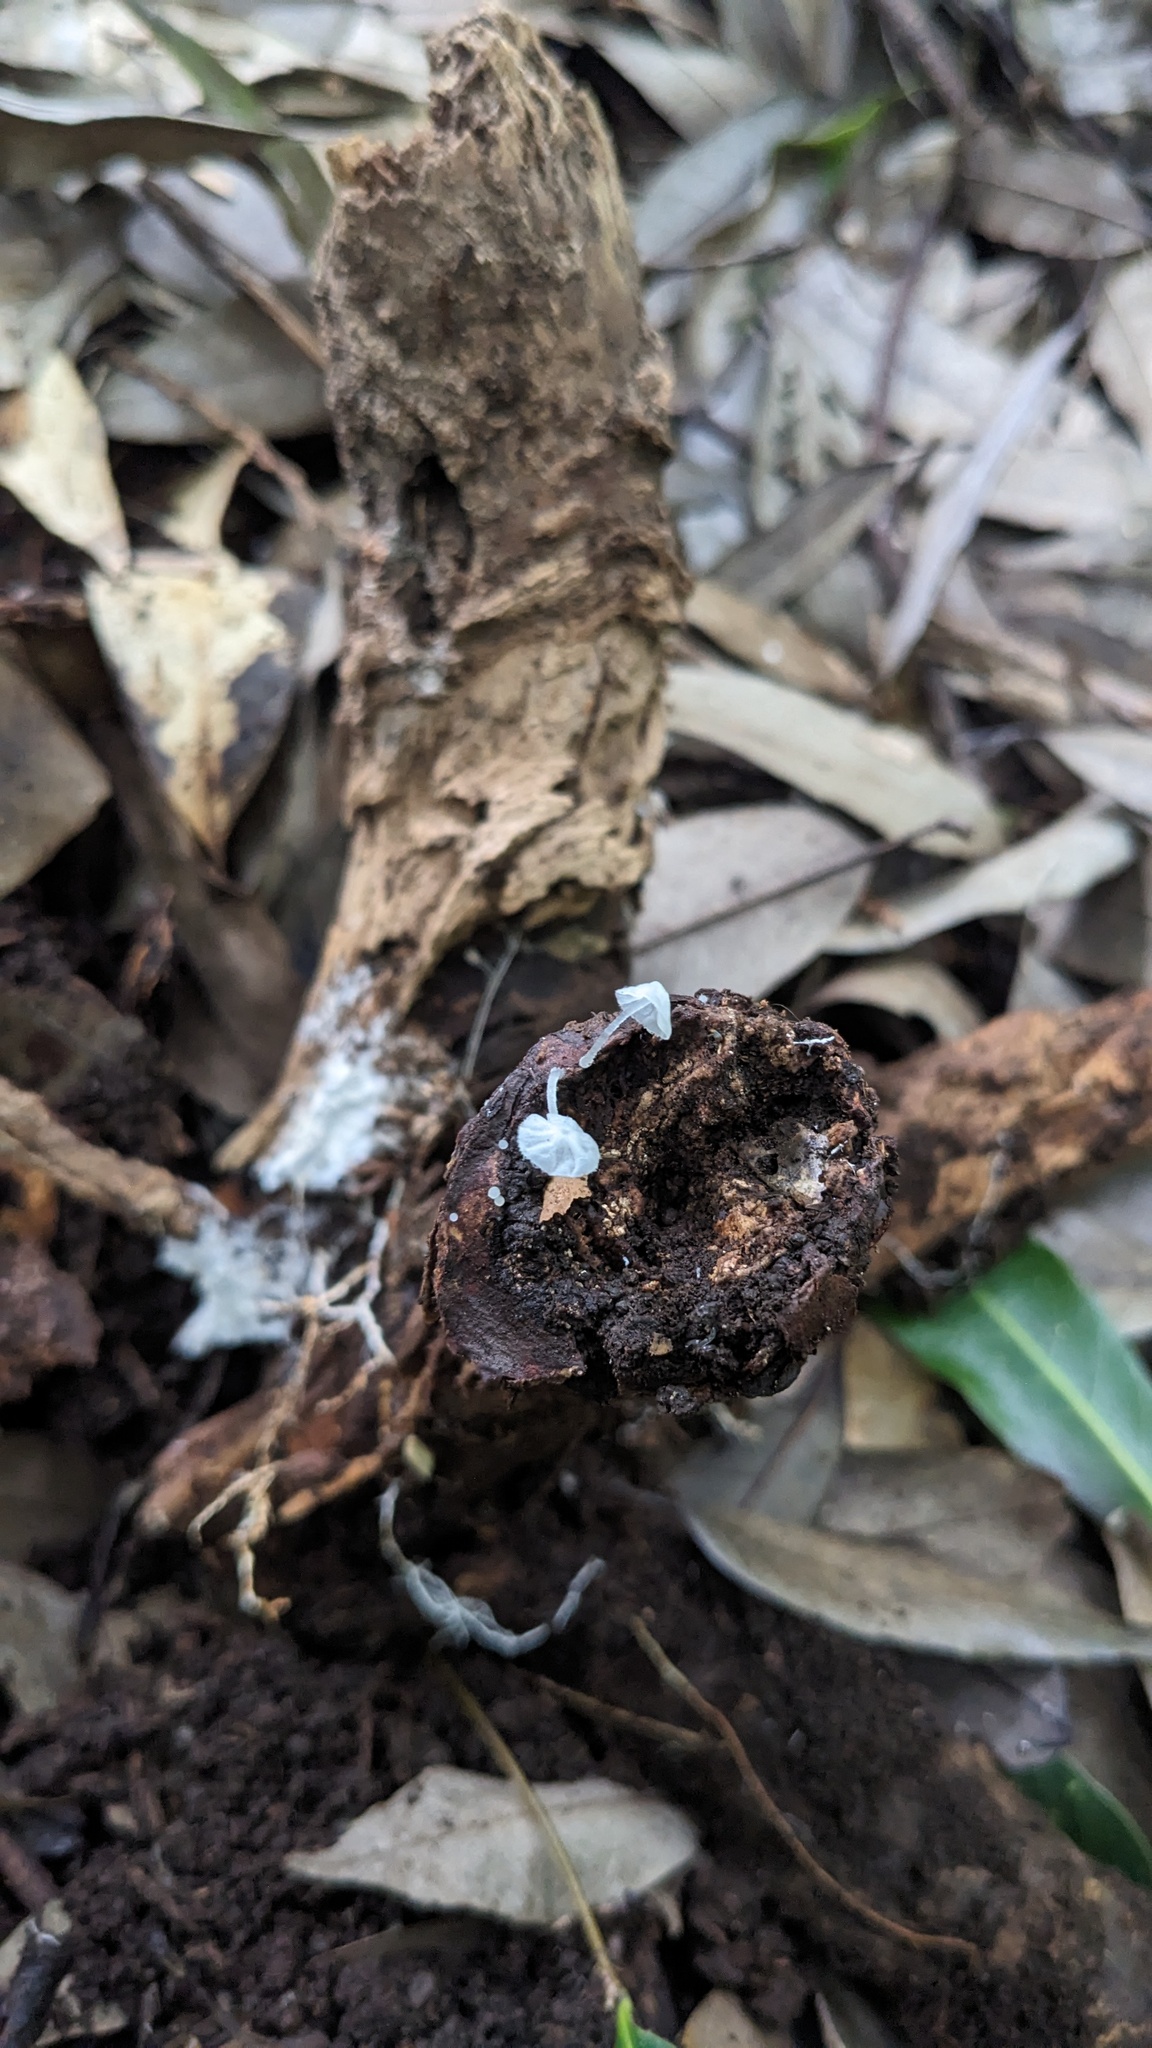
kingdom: Fungi
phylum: Basidiomycota
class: Agaricomycetes
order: Agaricales
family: Tricholomataceae
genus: Delicatula
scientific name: Delicatula integrella
